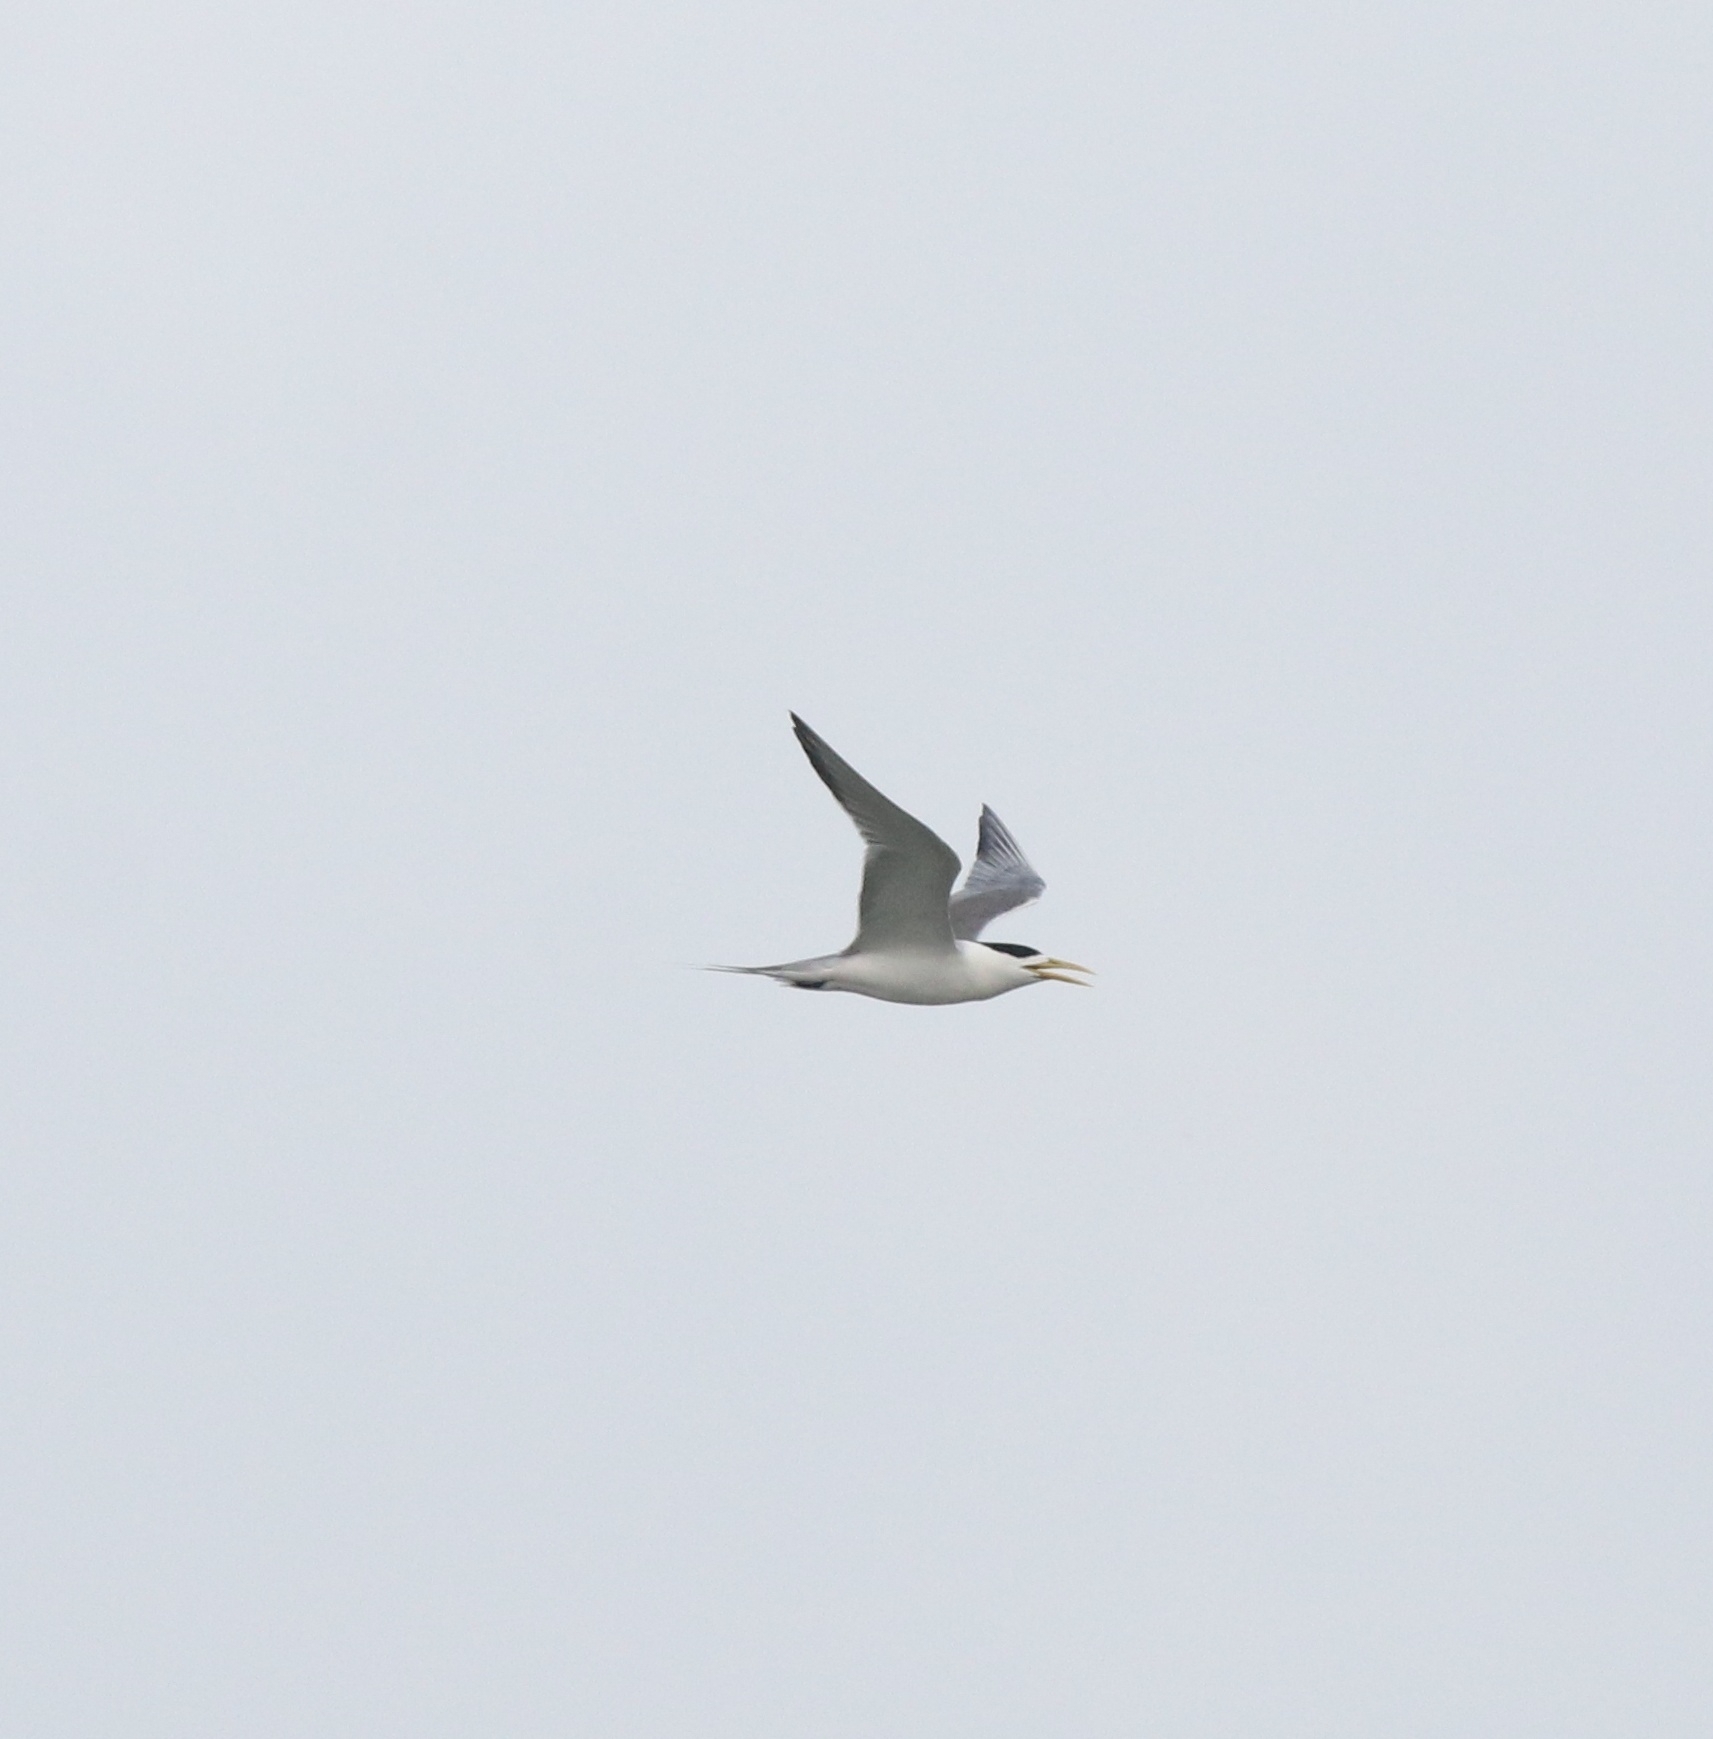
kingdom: Animalia
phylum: Chordata
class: Aves
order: Charadriiformes
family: Laridae
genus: Thalasseus
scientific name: Thalasseus bergii
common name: Greater crested tern
